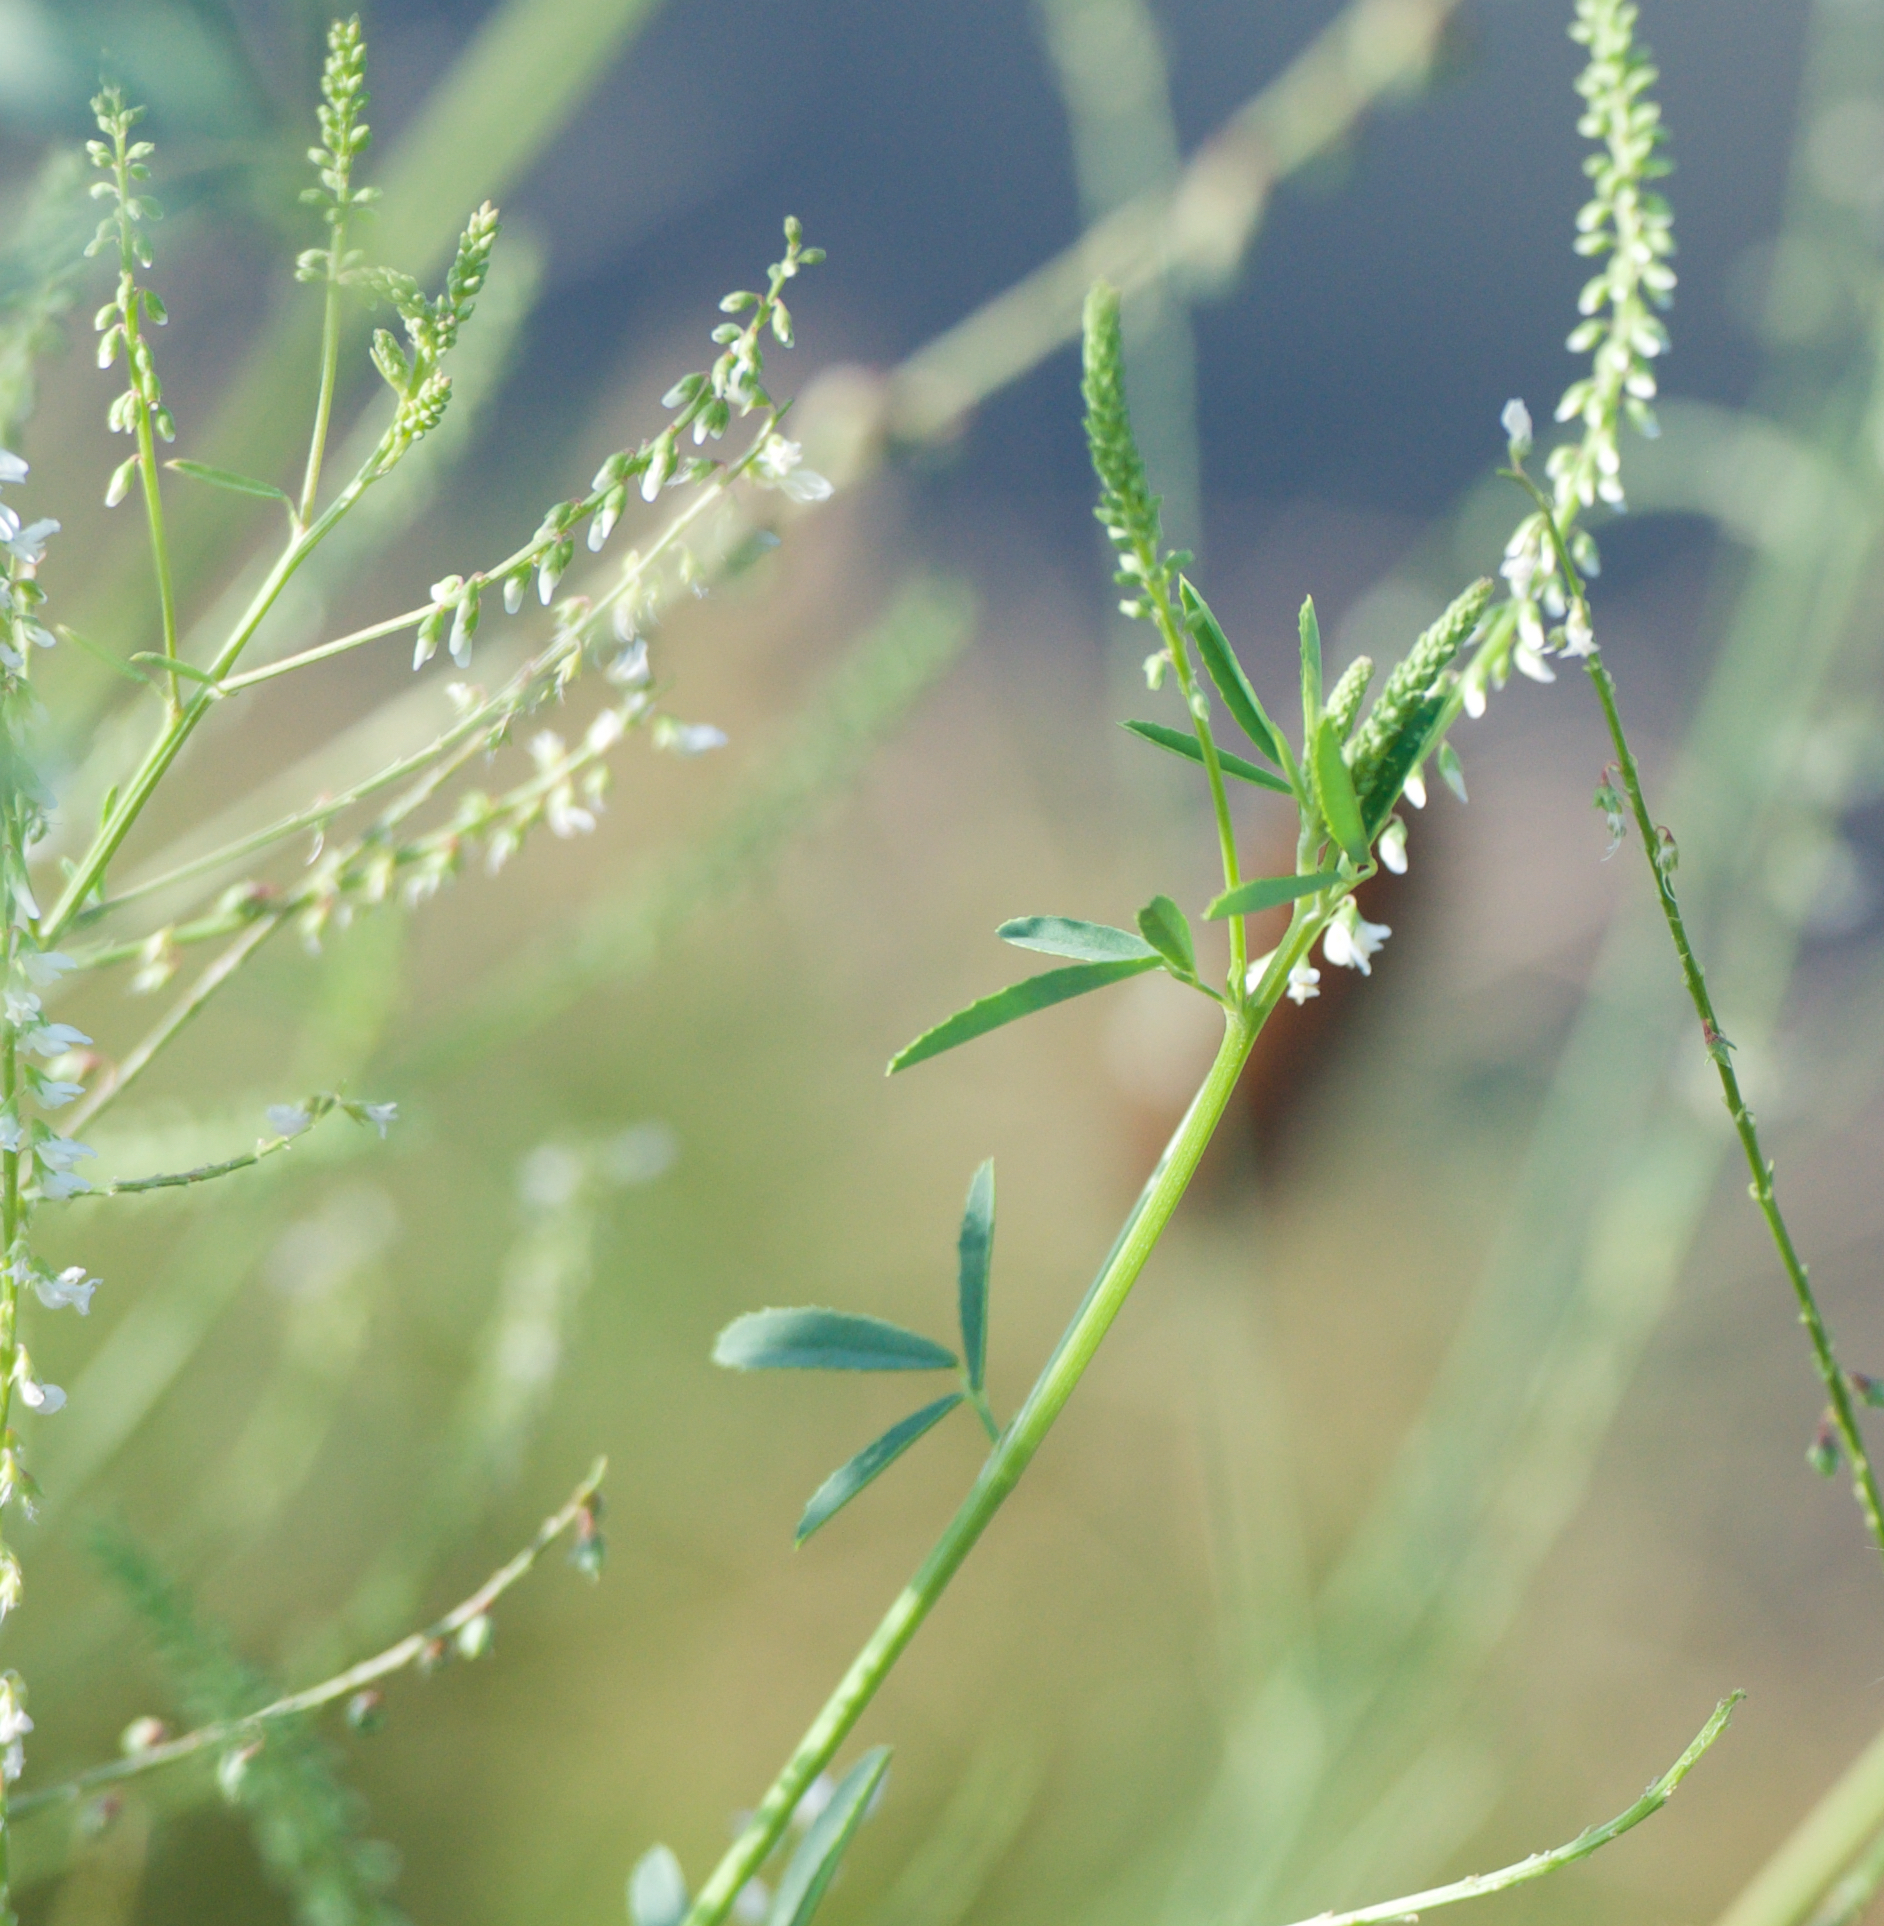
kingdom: Plantae
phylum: Tracheophyta
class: Magnoliopsida
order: Fabales
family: Fabaceae
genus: Melilotus
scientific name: Melilotus albus
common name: White melilot
